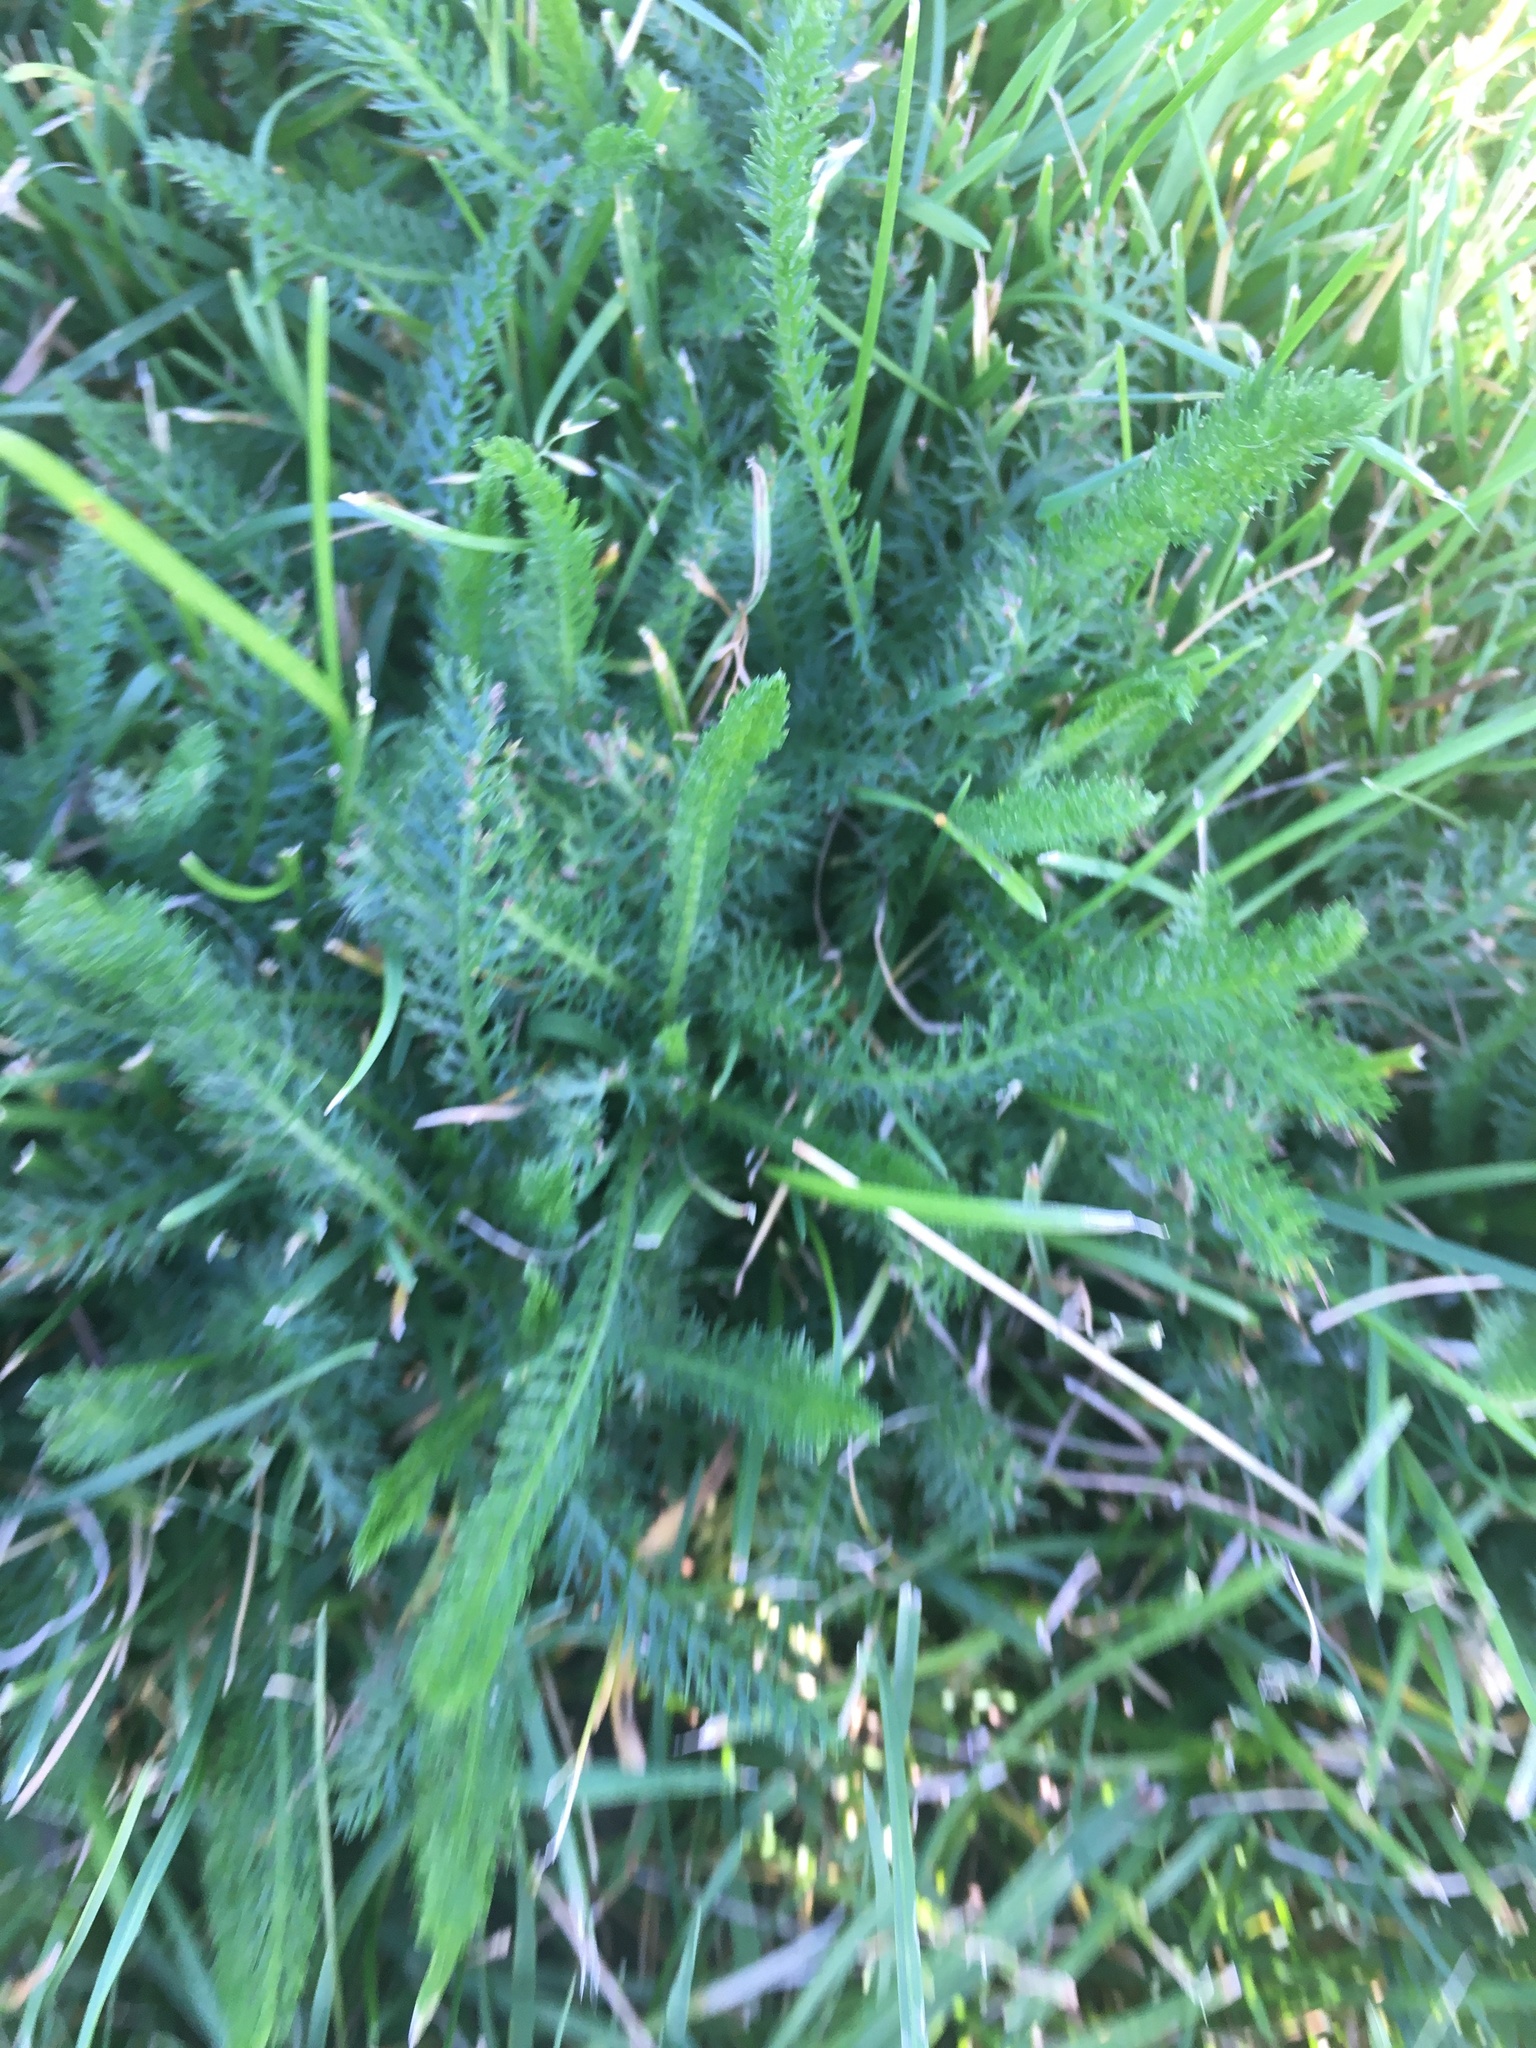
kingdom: Plantae
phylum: Tracheophyta
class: Magnoliopsida
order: Asterales
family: Asteraceae
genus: Achillea
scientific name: Achillea millefolium
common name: Yarrow
